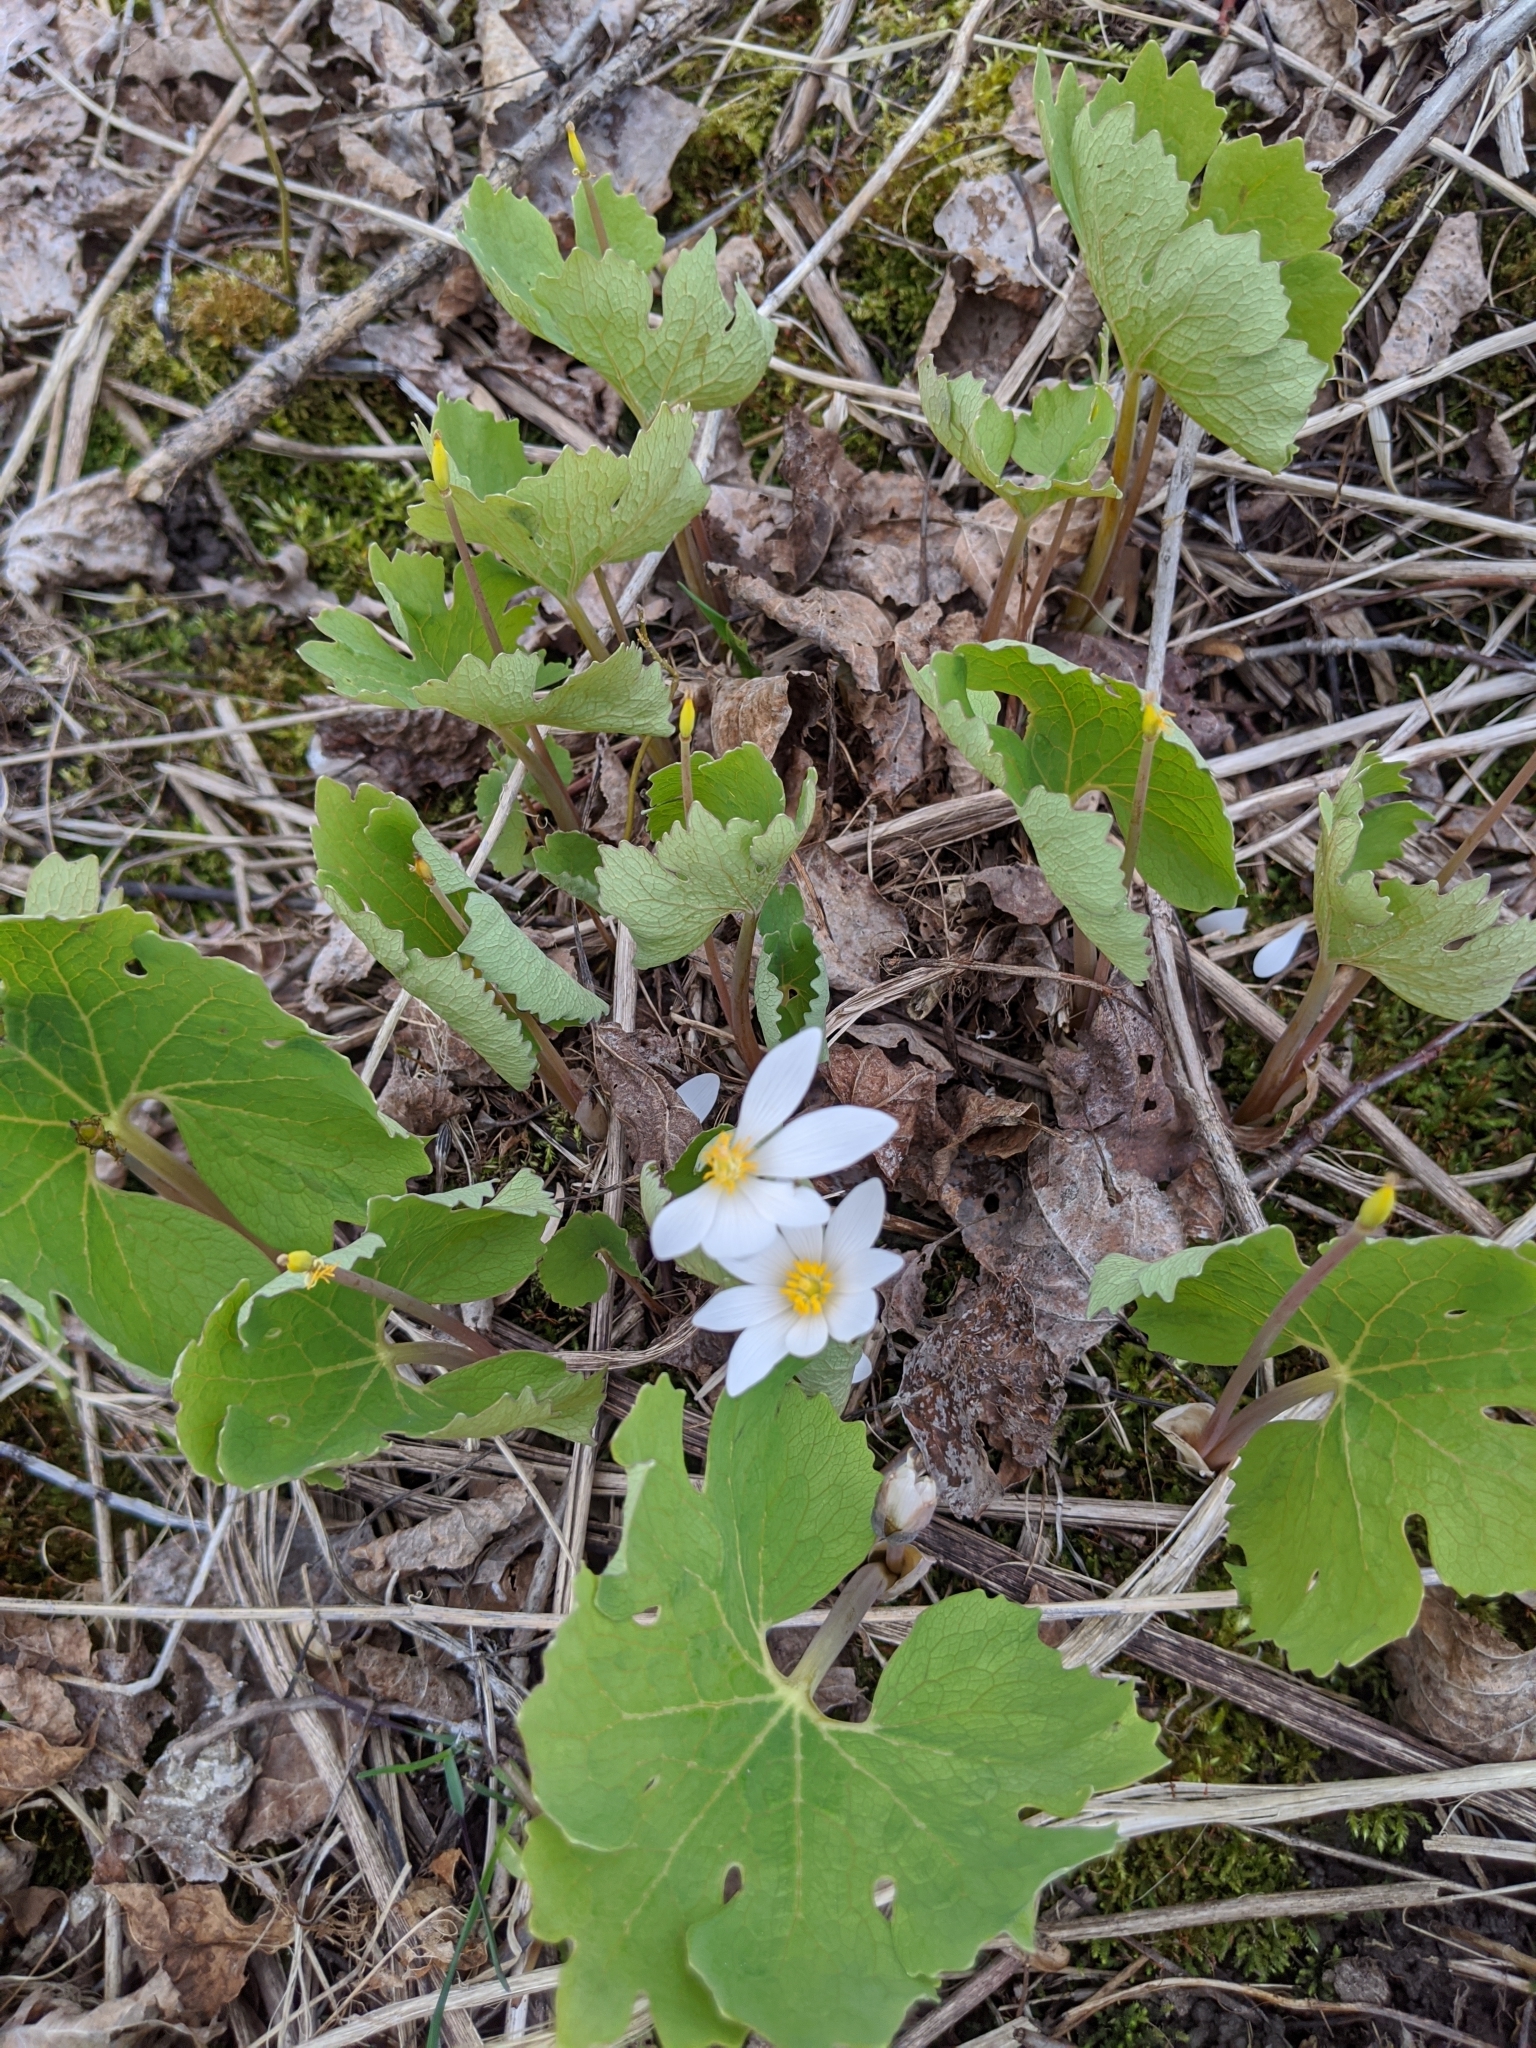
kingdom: Plantae
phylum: Tracheophyta
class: Magnoliopsida
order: Ranunculales
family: Papaveraceae
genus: Sanguinaria
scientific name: Sanguinaria canadensis
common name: Bloodroot
